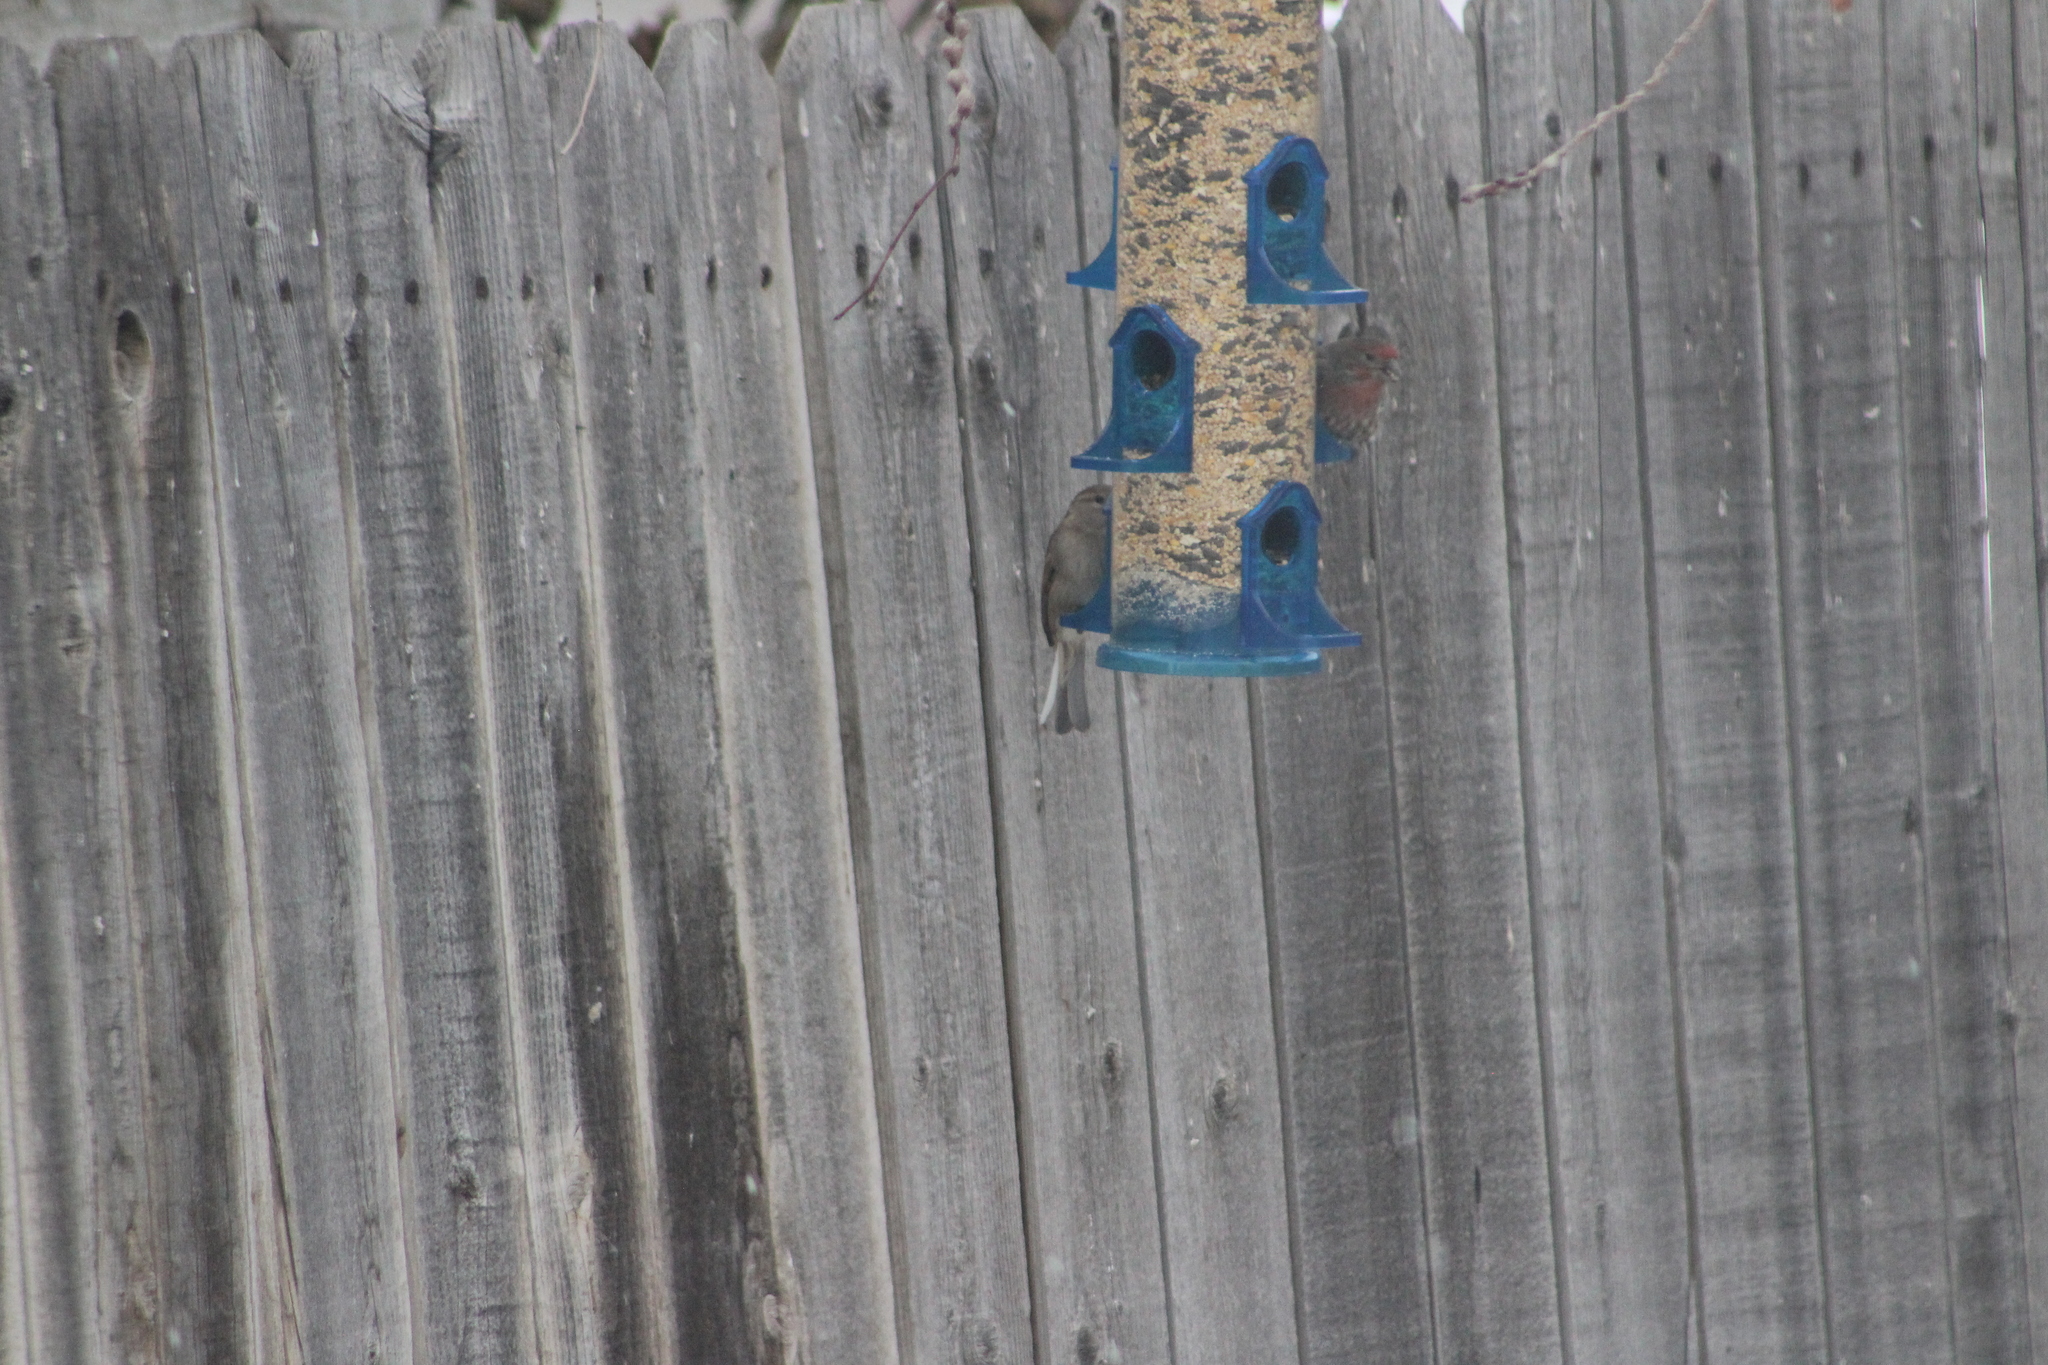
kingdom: Animalia
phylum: Chordata
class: Aves
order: Passeriformes
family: Fringillidae
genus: Haemorhous
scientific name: Haemorhous mexicanus
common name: House finch
